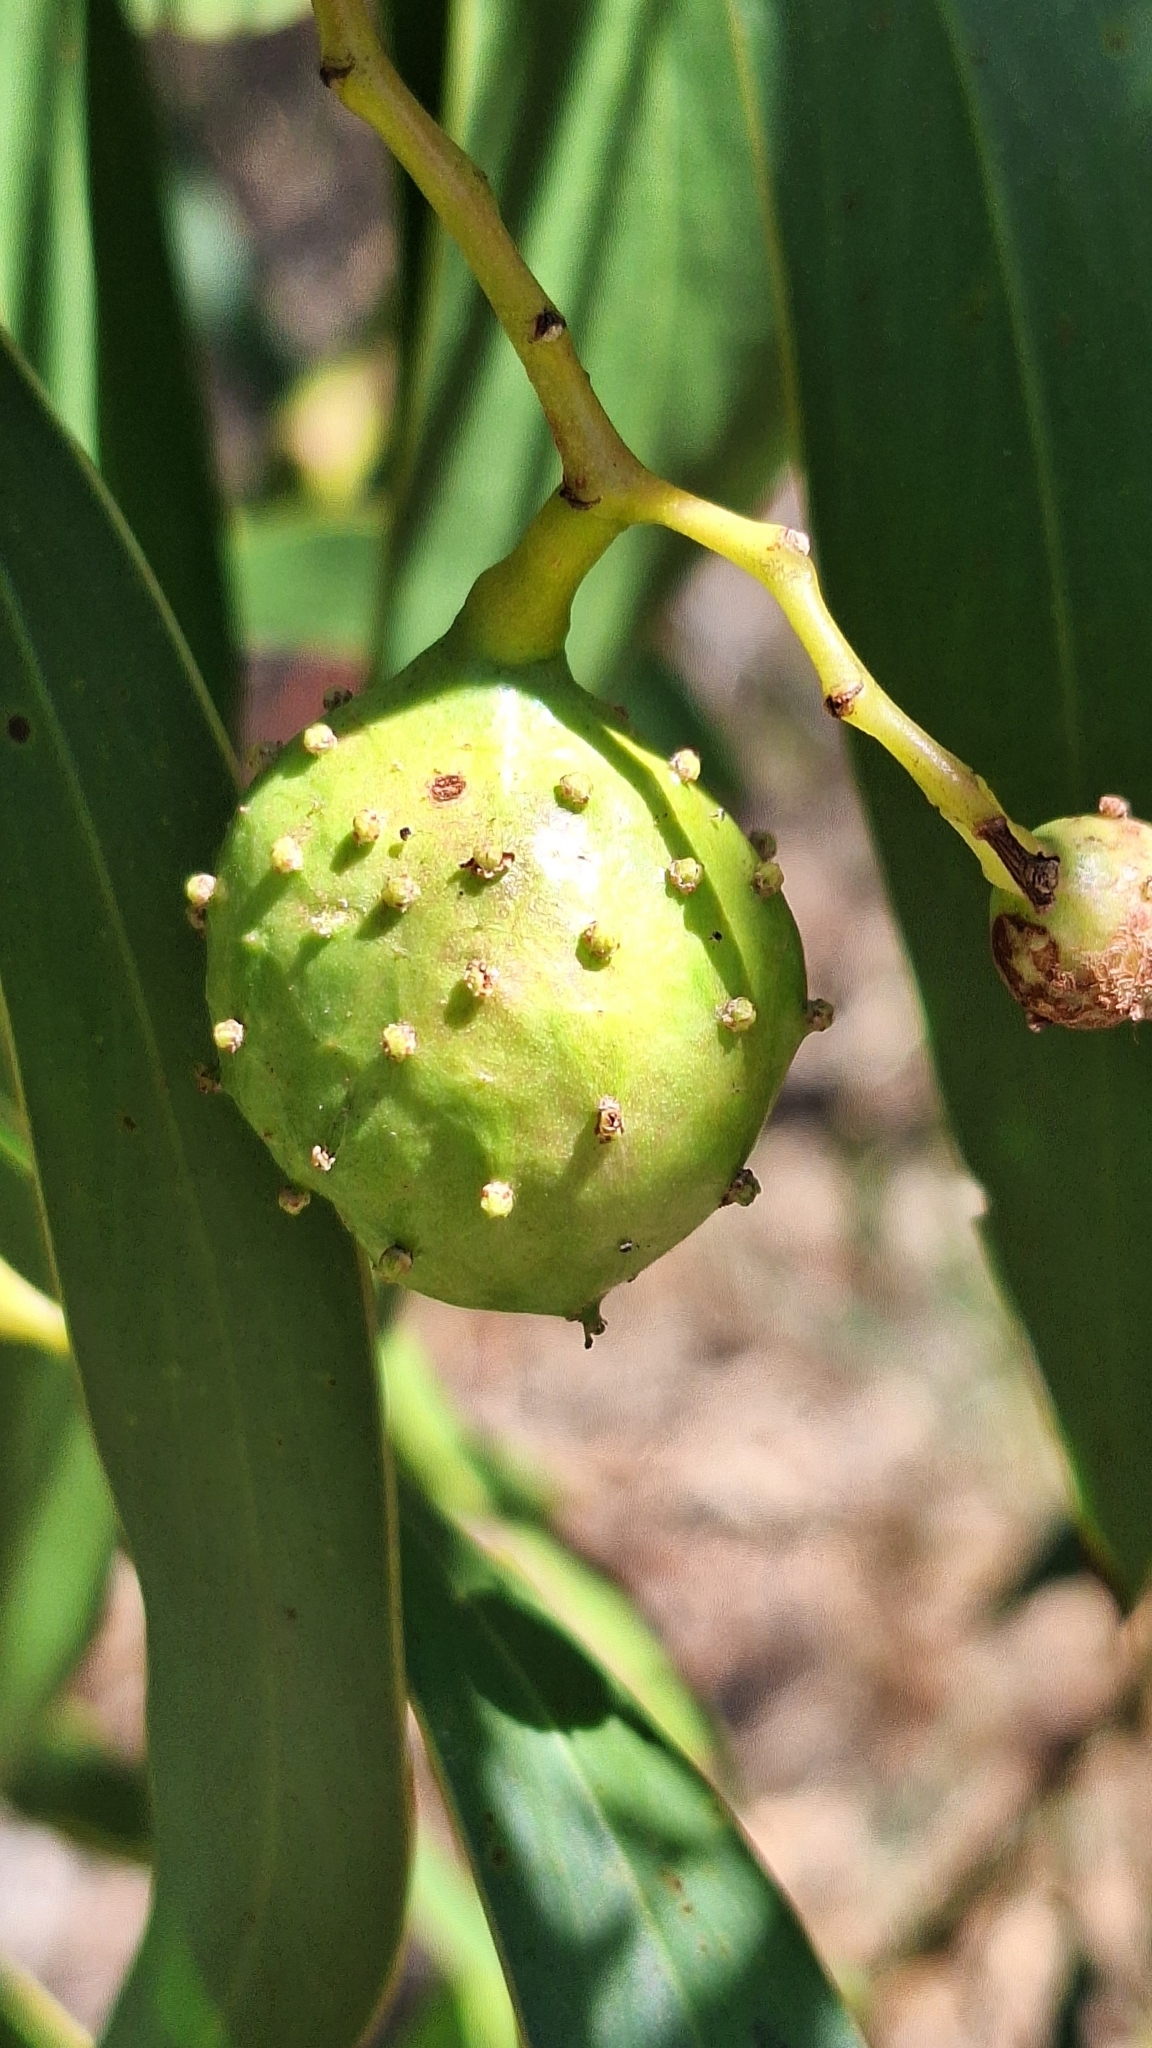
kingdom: Animalia
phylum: Arthropoda
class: Insecta
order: Hymenoptera
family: Pteromalidae
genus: Trichilogaster
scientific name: Trichilogaster signiventris
